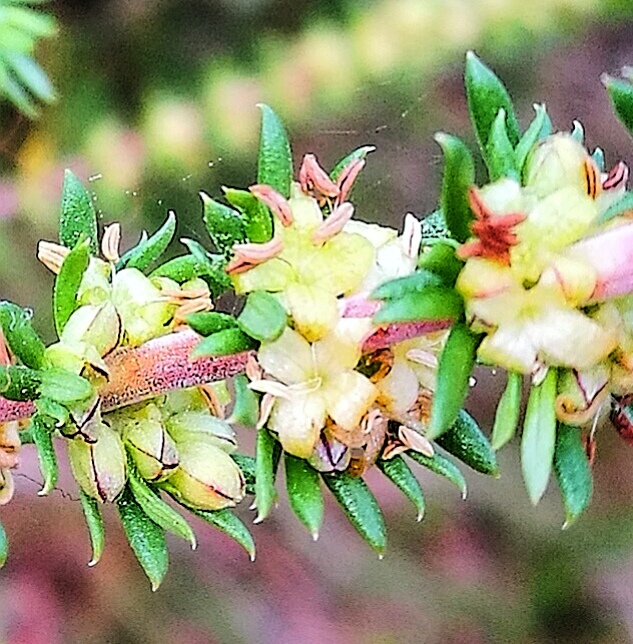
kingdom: Plantae
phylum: Tracheophyta
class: Magnoliopsida
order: Gentianales
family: Rubiaceae
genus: Anthospermum
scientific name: Anthospermum aethiopicum
